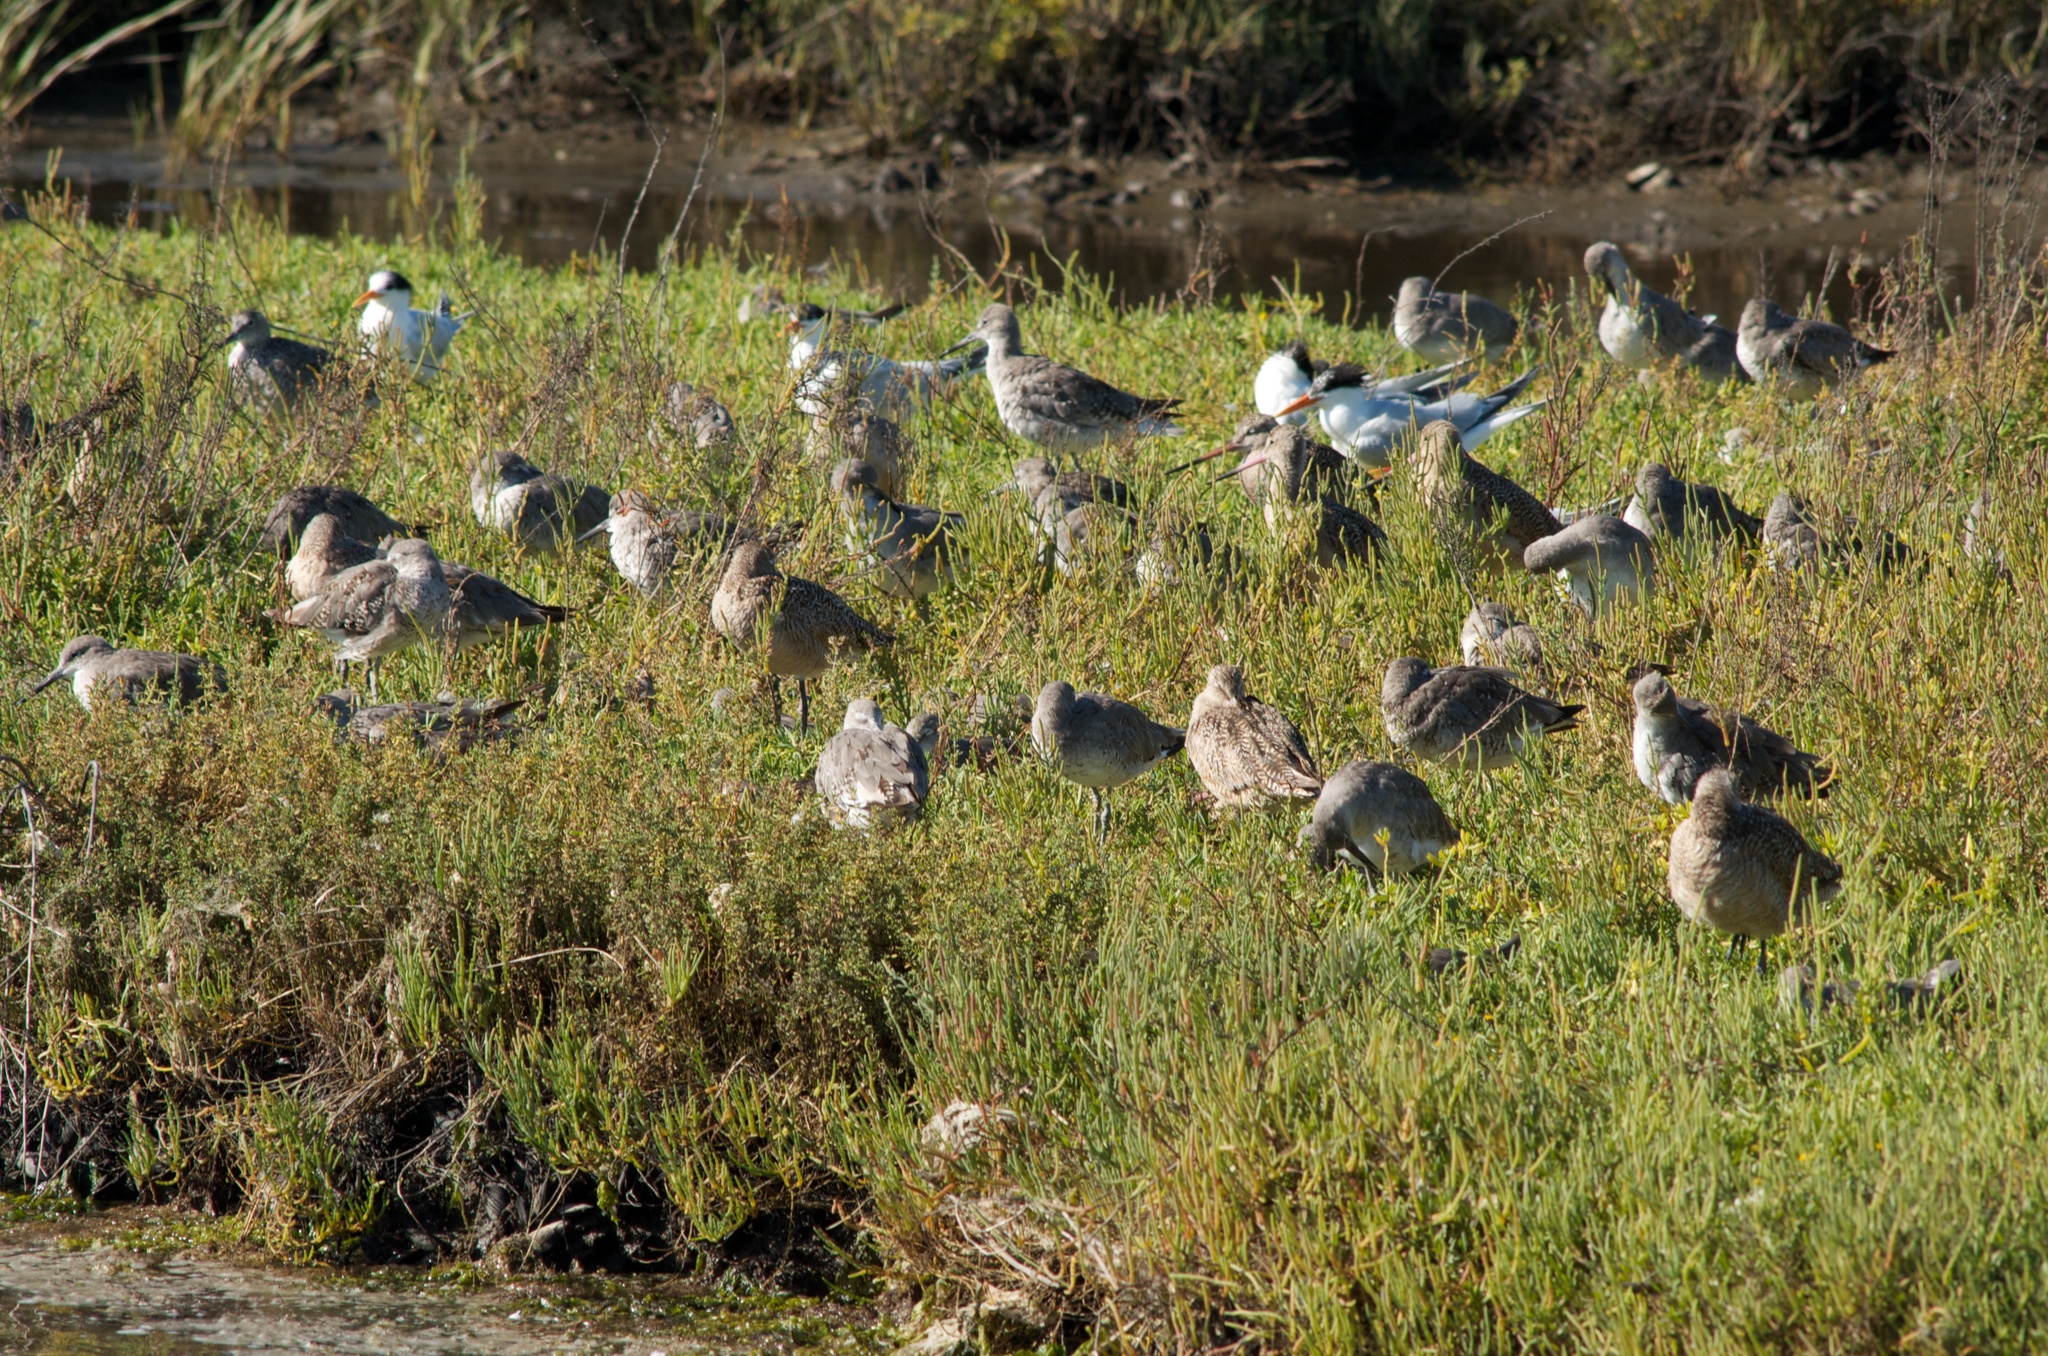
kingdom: Animalia
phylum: Chordata
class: Aves
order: Charadriiformes
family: Scolopacidae
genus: Limosa
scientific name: Limosa fedoa
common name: Marbled godwit
